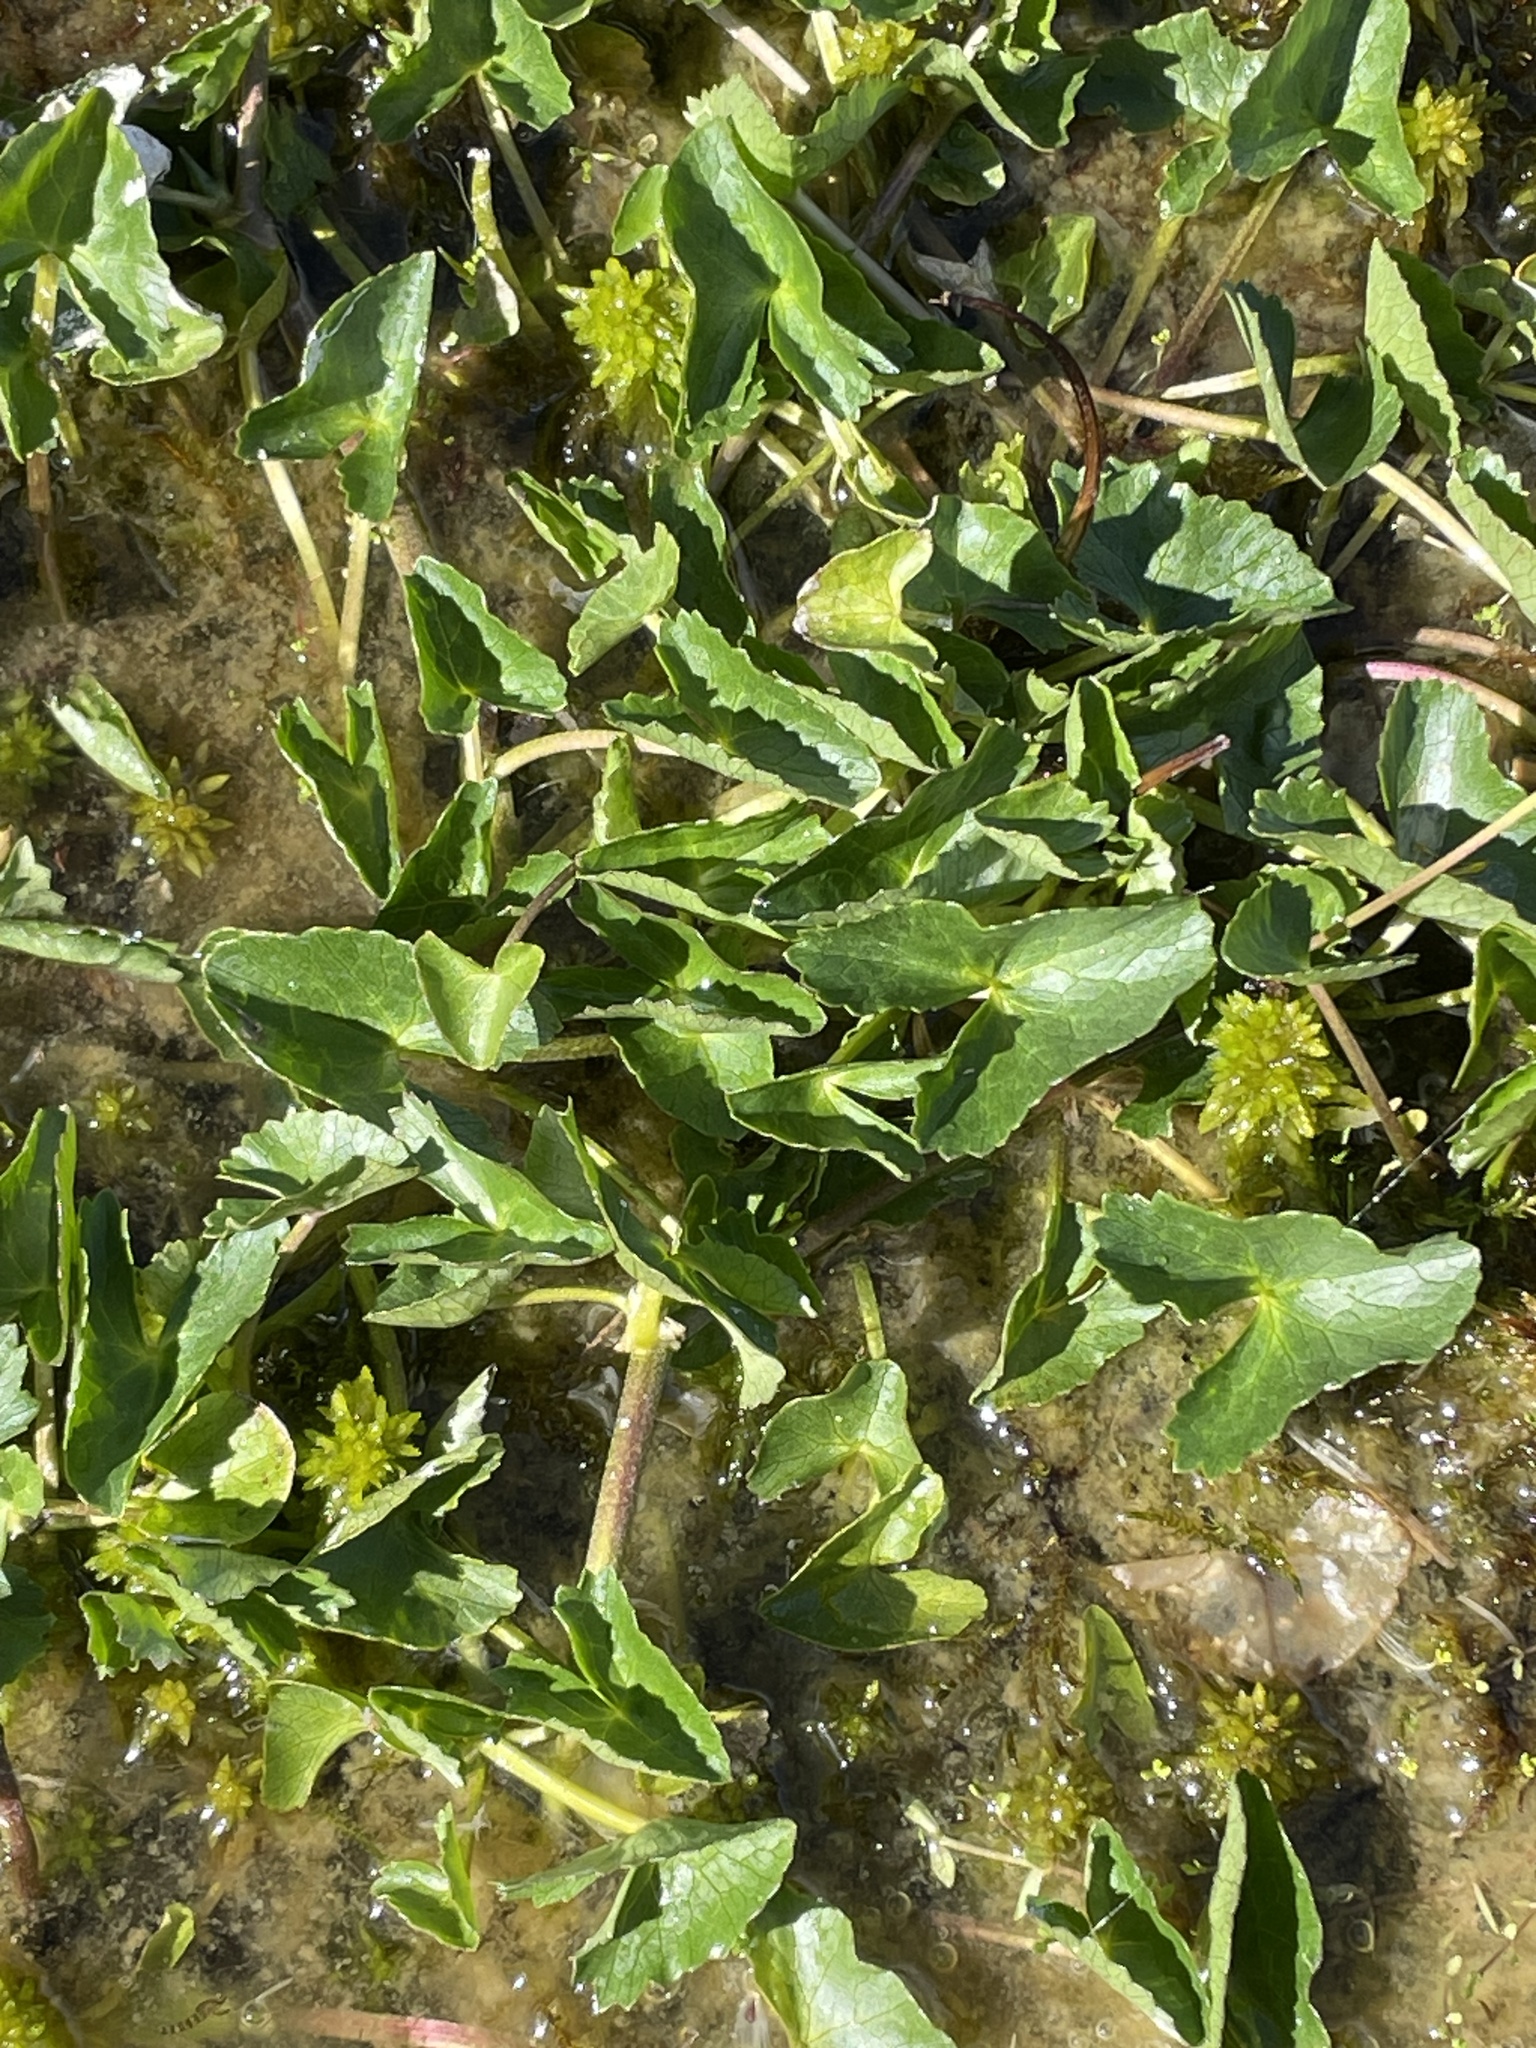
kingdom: Plantae
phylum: Tracheophyta
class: Magnoliopsida
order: Ranunculales
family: Ranunculaceae
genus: Caltha
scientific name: Caltha palustris
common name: Marsh marigold
